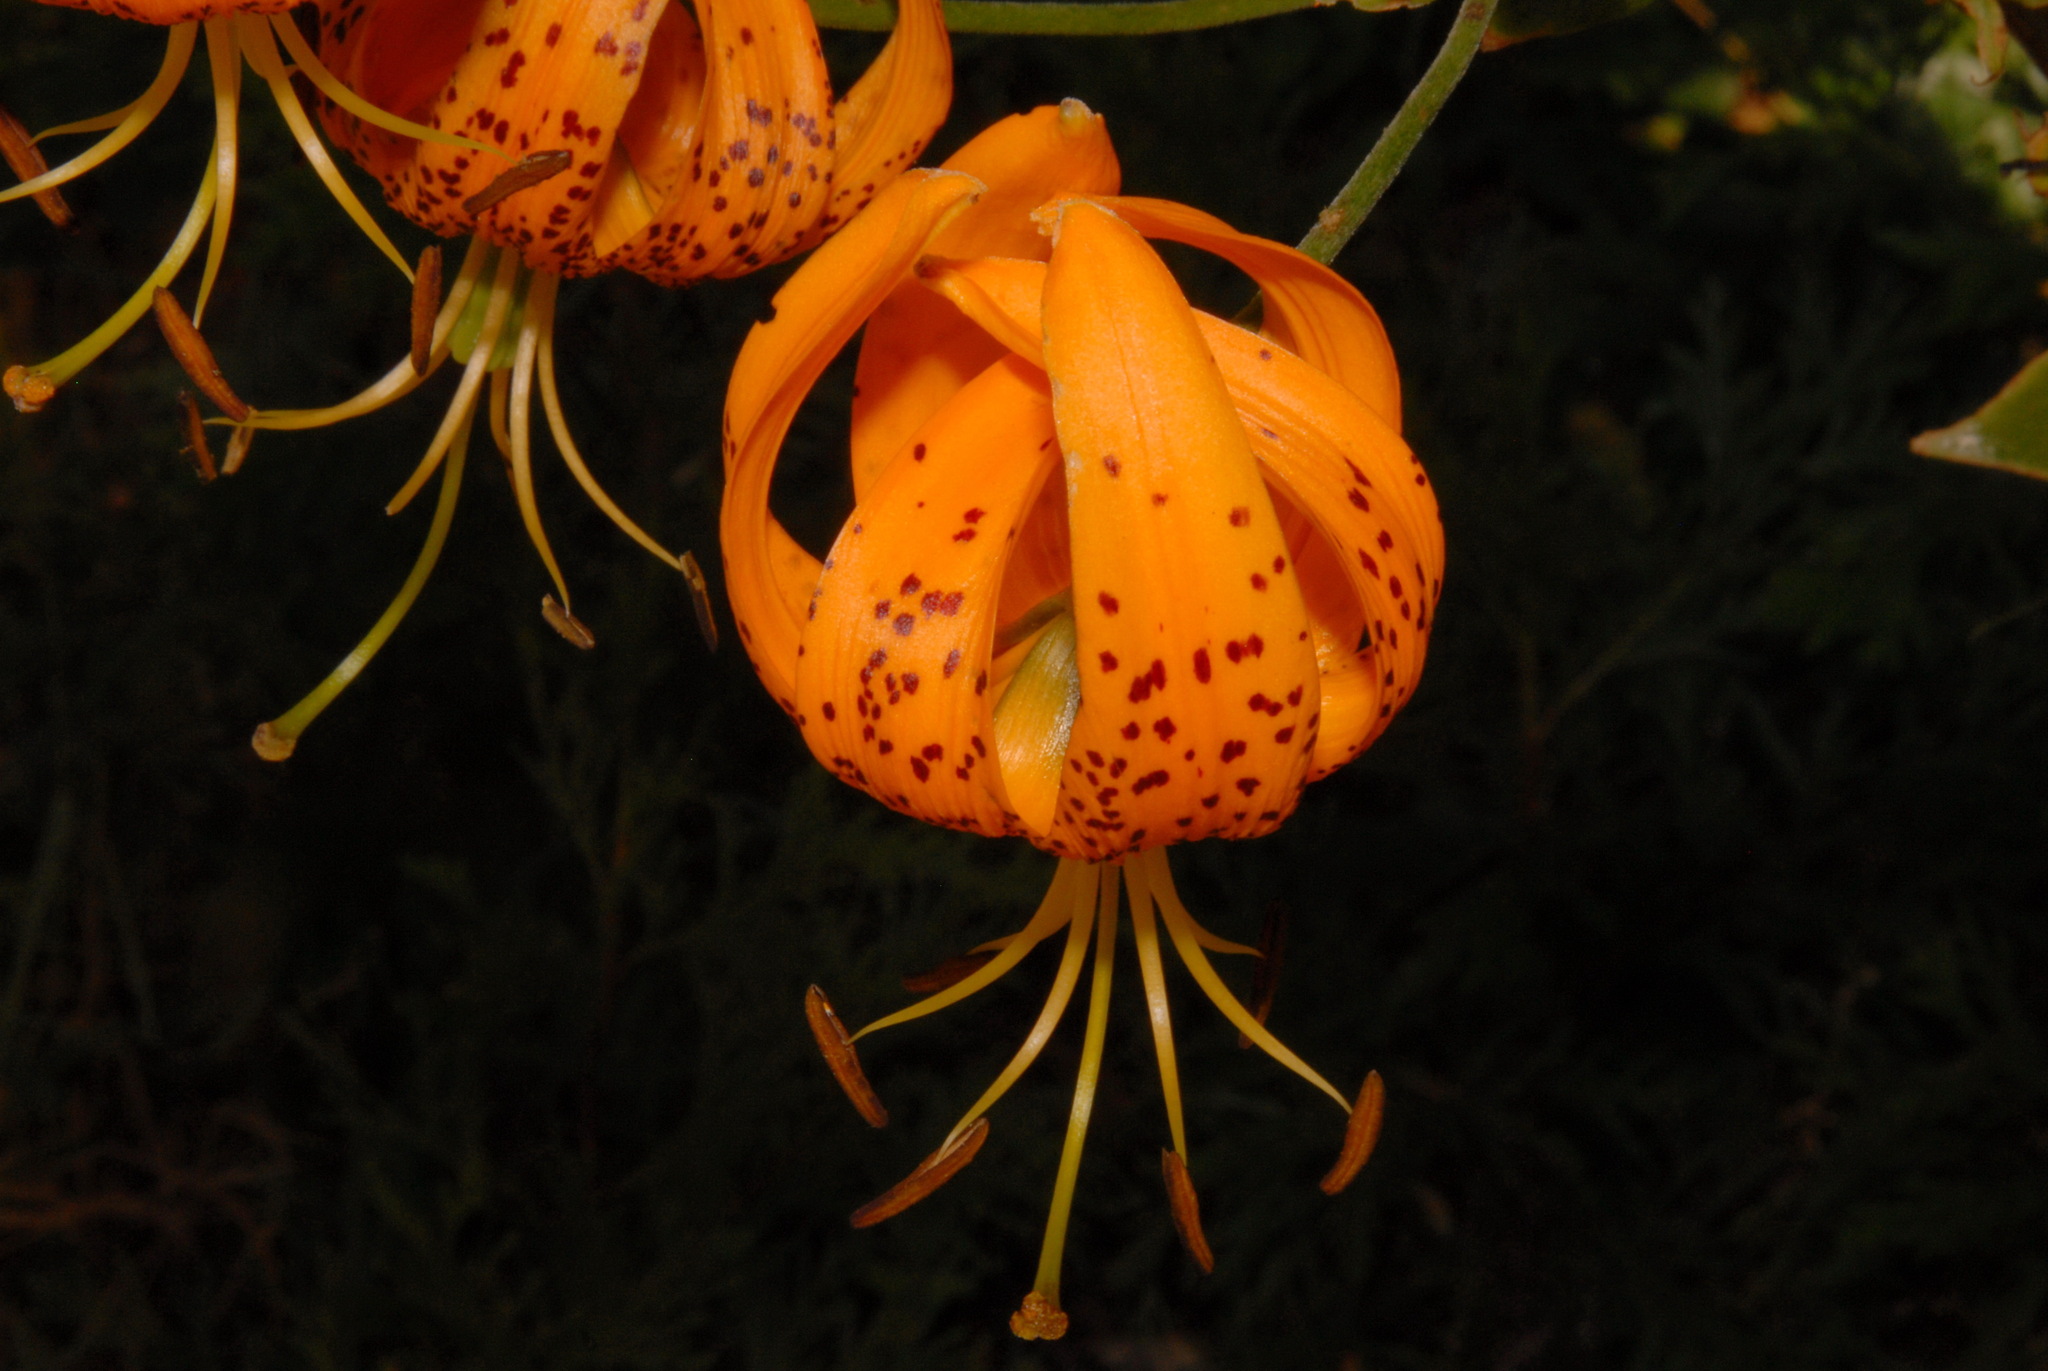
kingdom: Plantae
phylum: Tracheophyta
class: Liliopsida
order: Liliales
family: Liliaceae
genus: Lilium
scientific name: Lilium humboldtii
